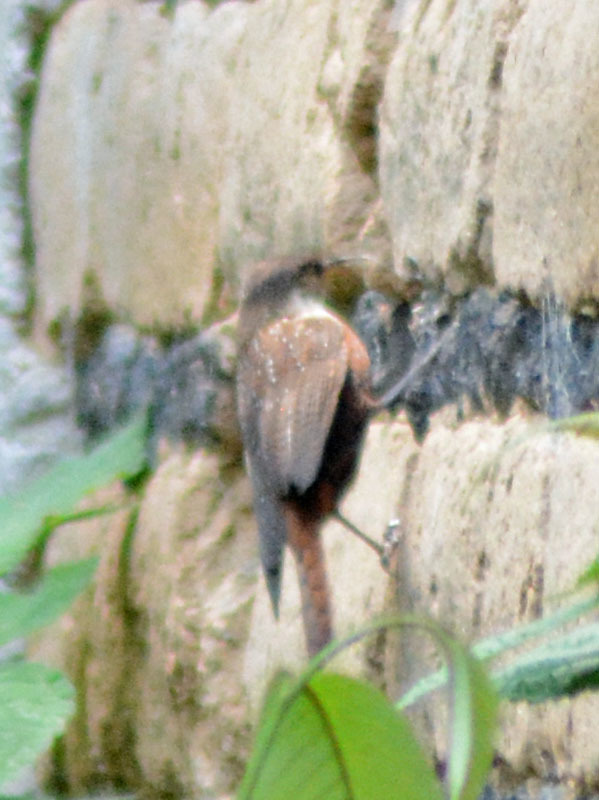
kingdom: Animalia
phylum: Chordata
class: Aves
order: Passeriformes
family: Troglodytidae
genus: Catherpes
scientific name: Catherpes mexicanus
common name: Canyon wren
